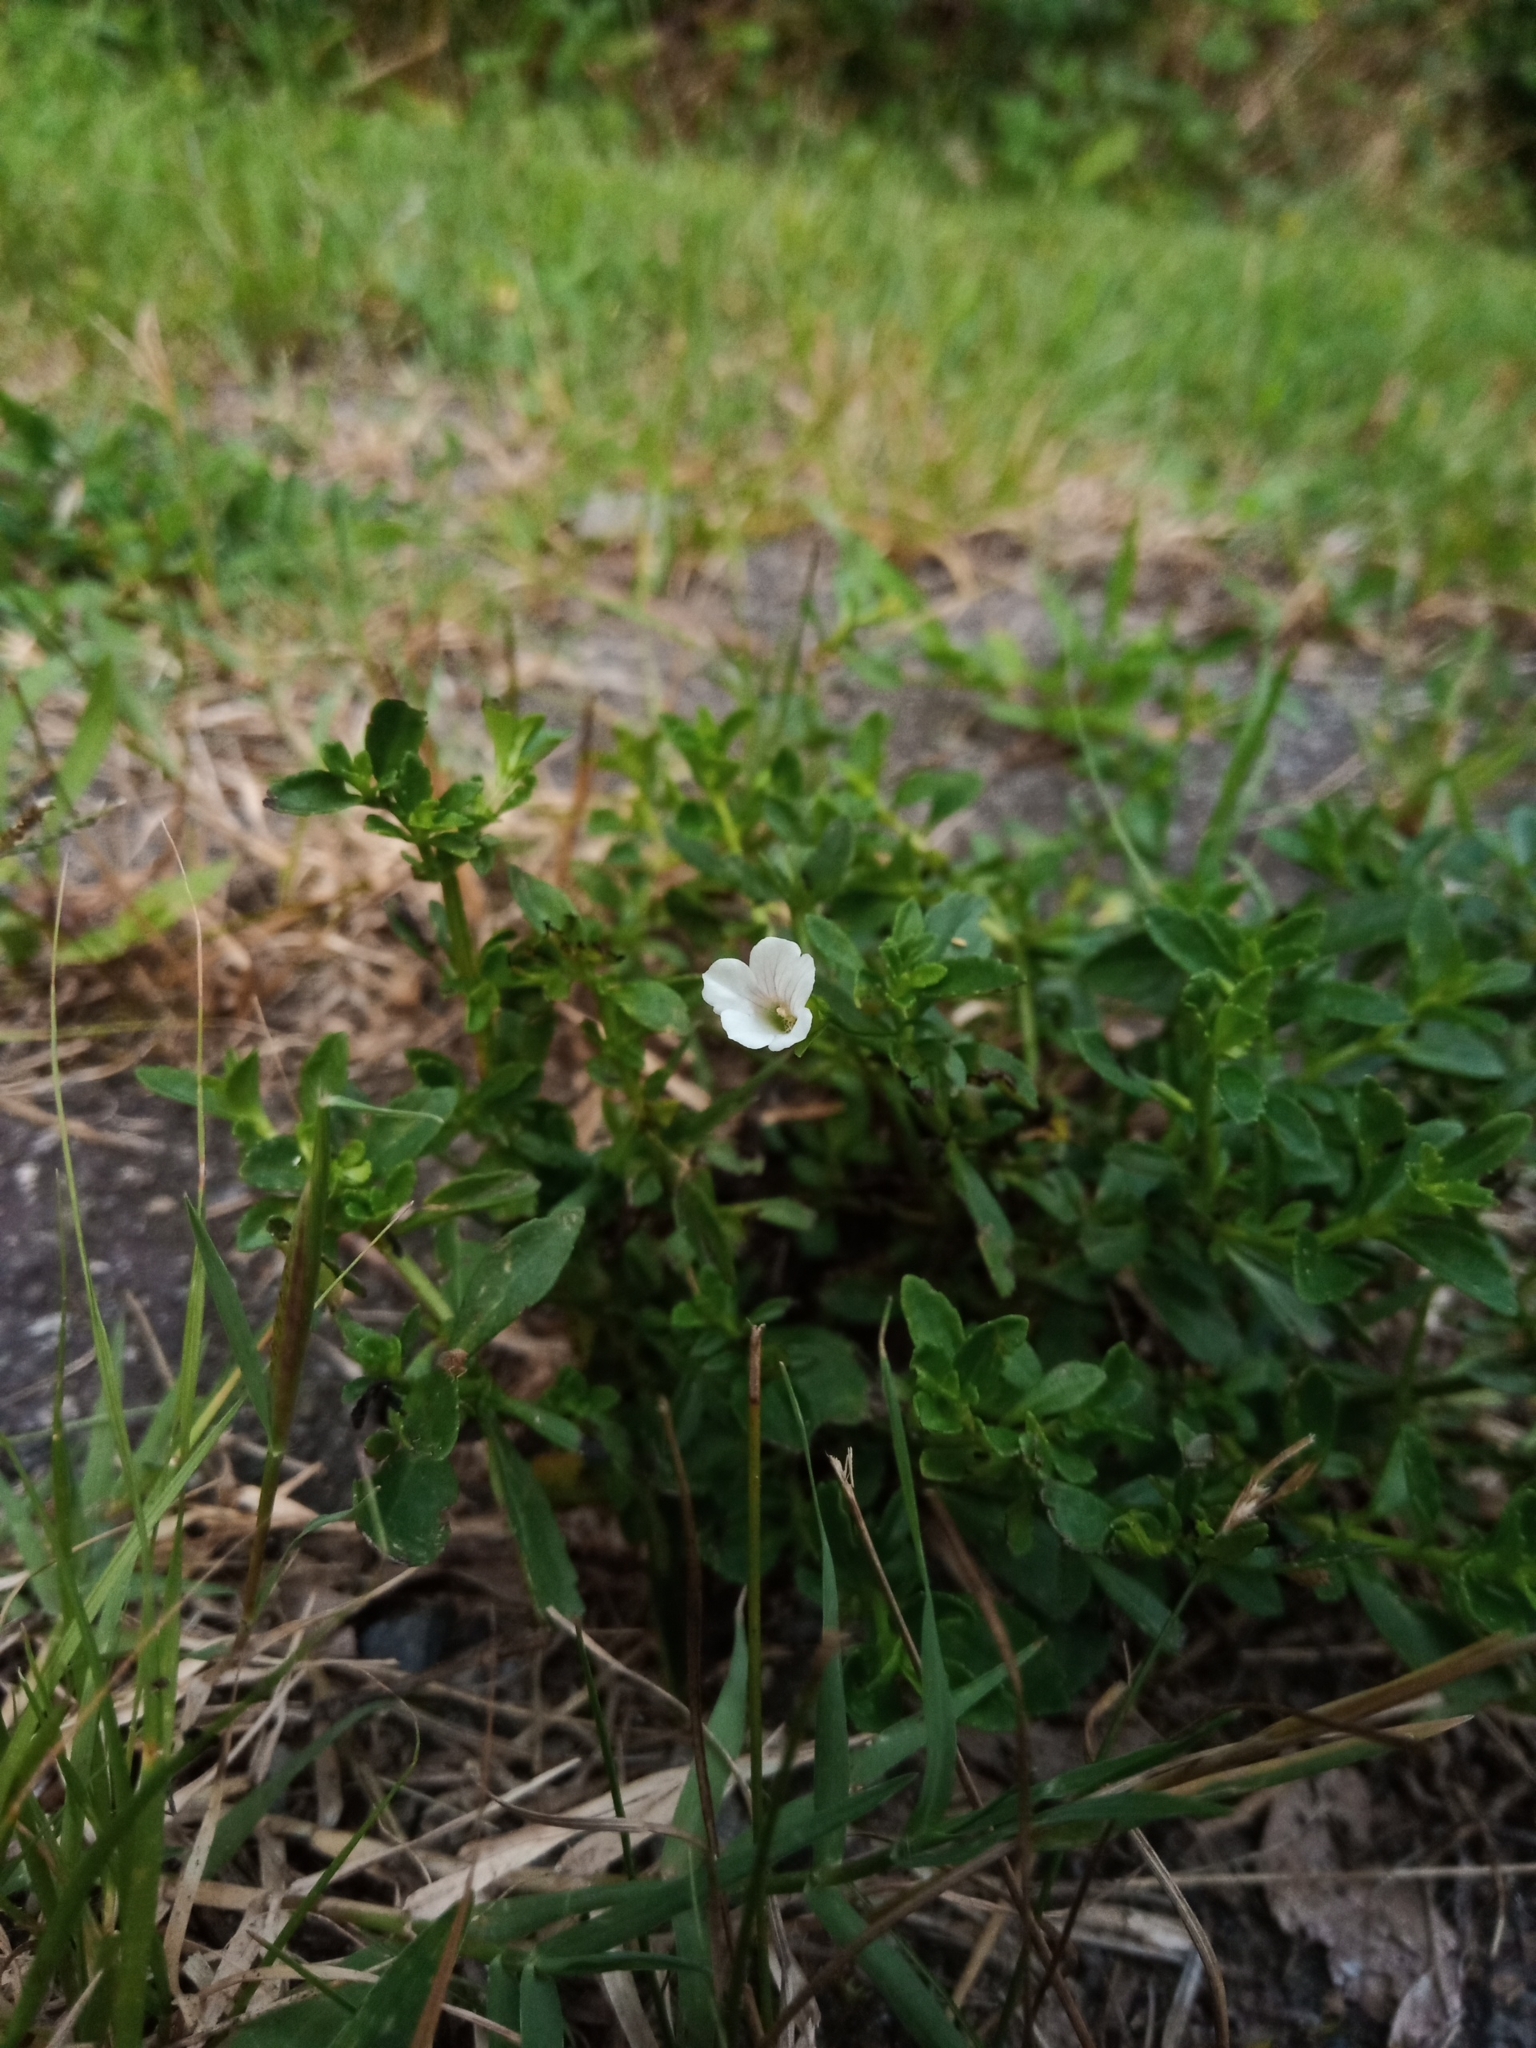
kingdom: Plantae
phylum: Tracheophyta
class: Magnoliopsida
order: Lamiales
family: Plantaginaceae
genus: Mecardonia
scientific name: Mecardonia acuminata
